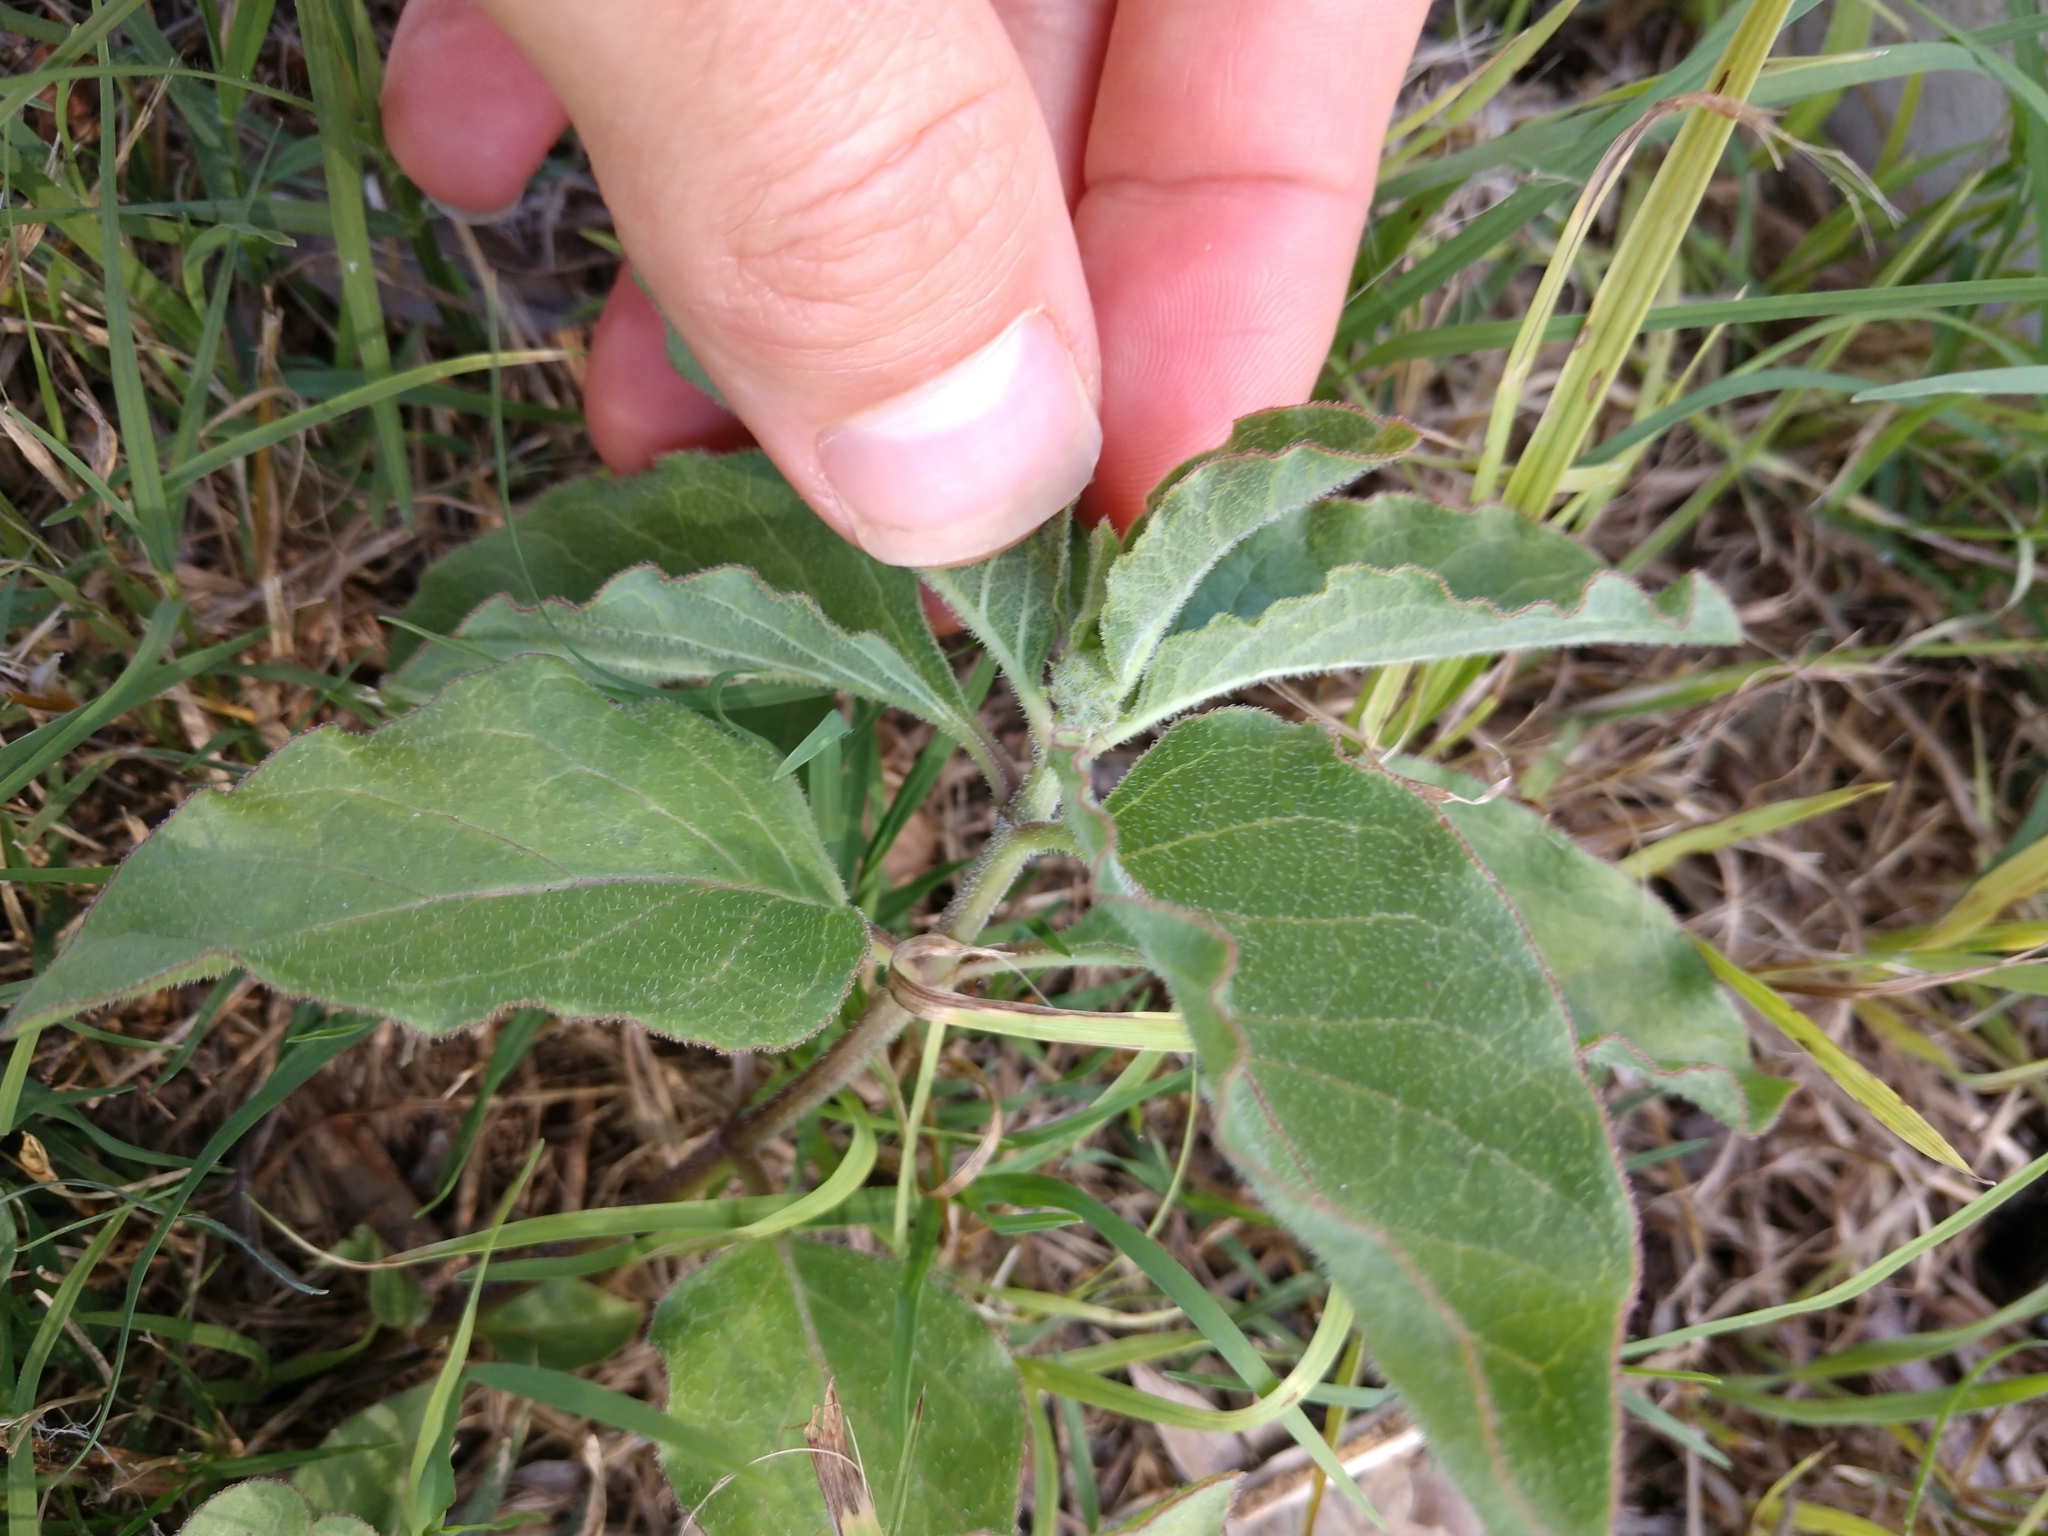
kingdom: Plantae
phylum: Tracheophyta
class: Magnoliopsida
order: Gentianales
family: Apocynaceae
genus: Asclepias
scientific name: Asclepias oenotheroides
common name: Zizotes milkweed
